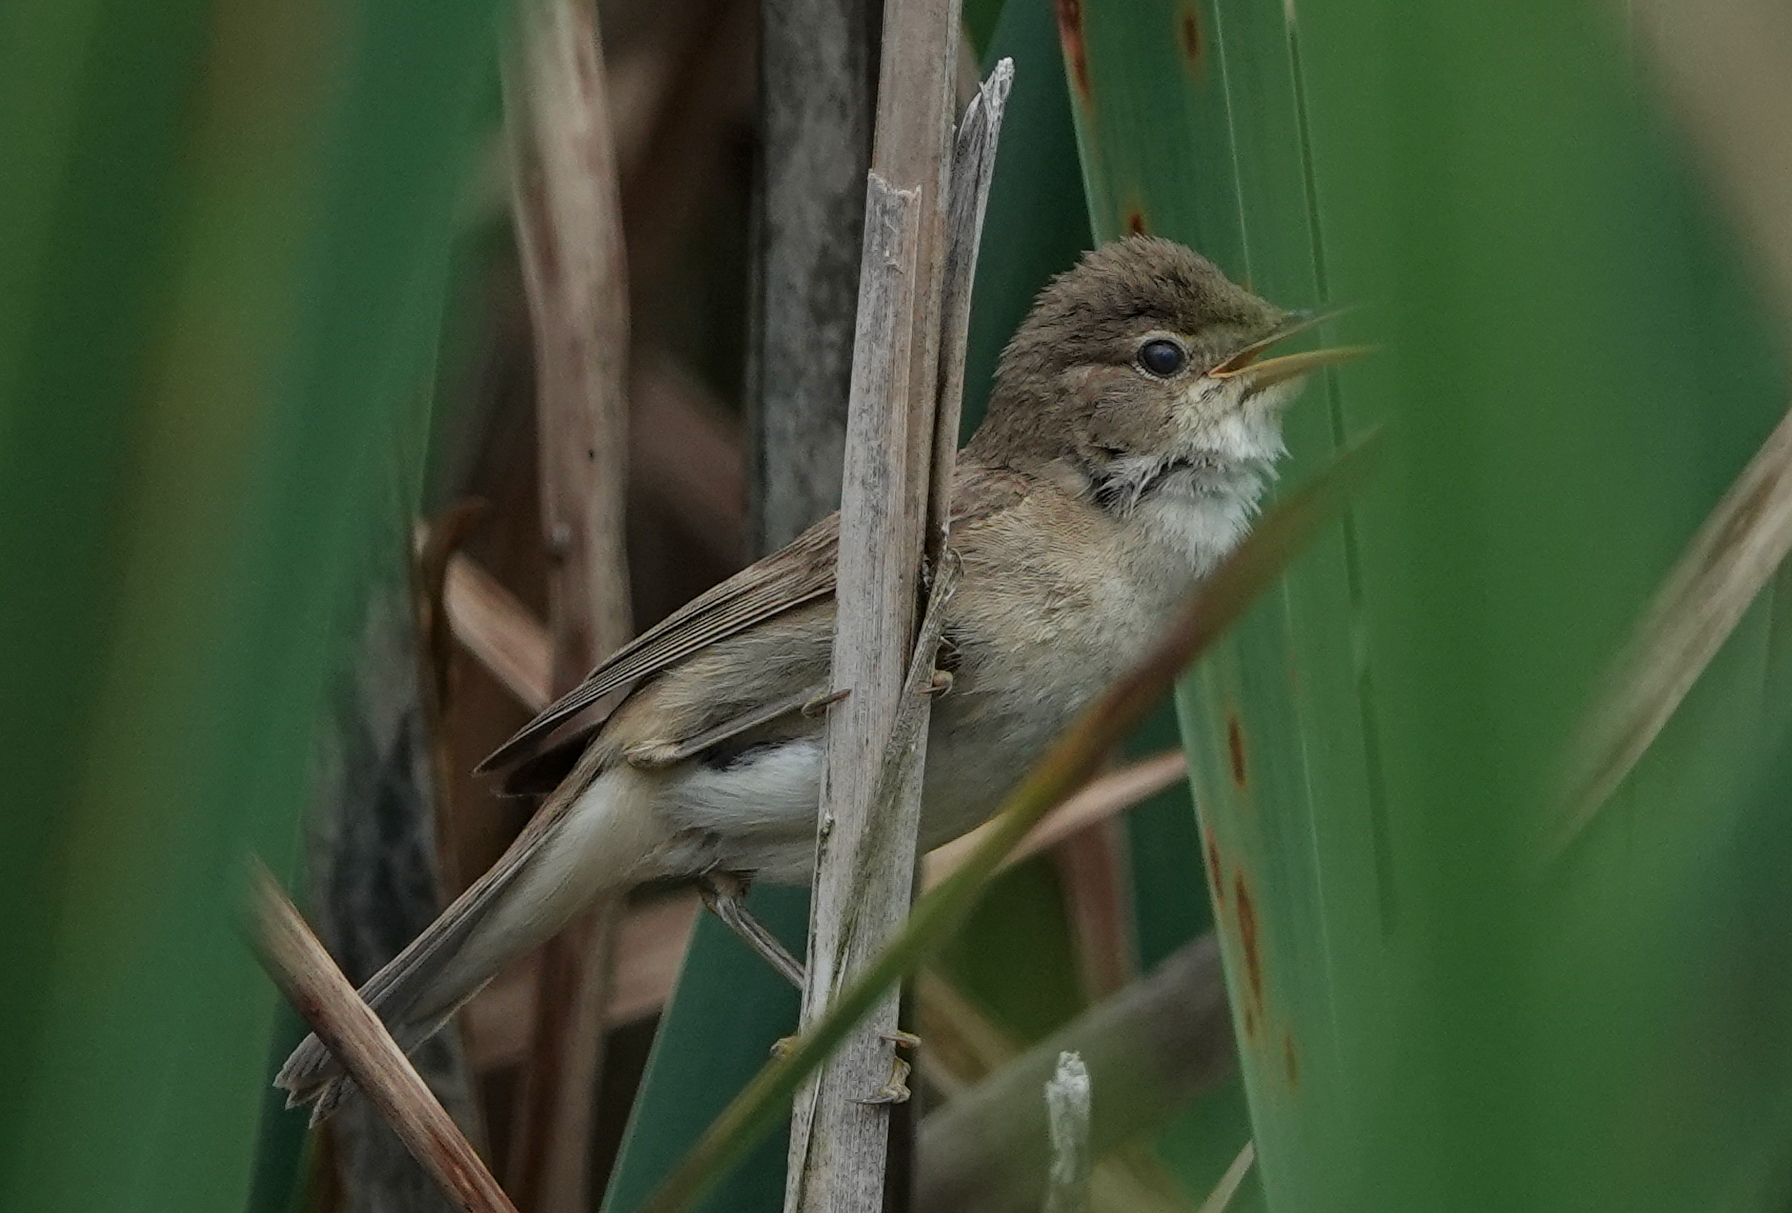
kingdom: Animalia
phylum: Chordata
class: Aves
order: Passeriformes
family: Acrocephalidae
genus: Acrocephalus
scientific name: Acrocephalus scirpaceus
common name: Eurasian reed warbler
